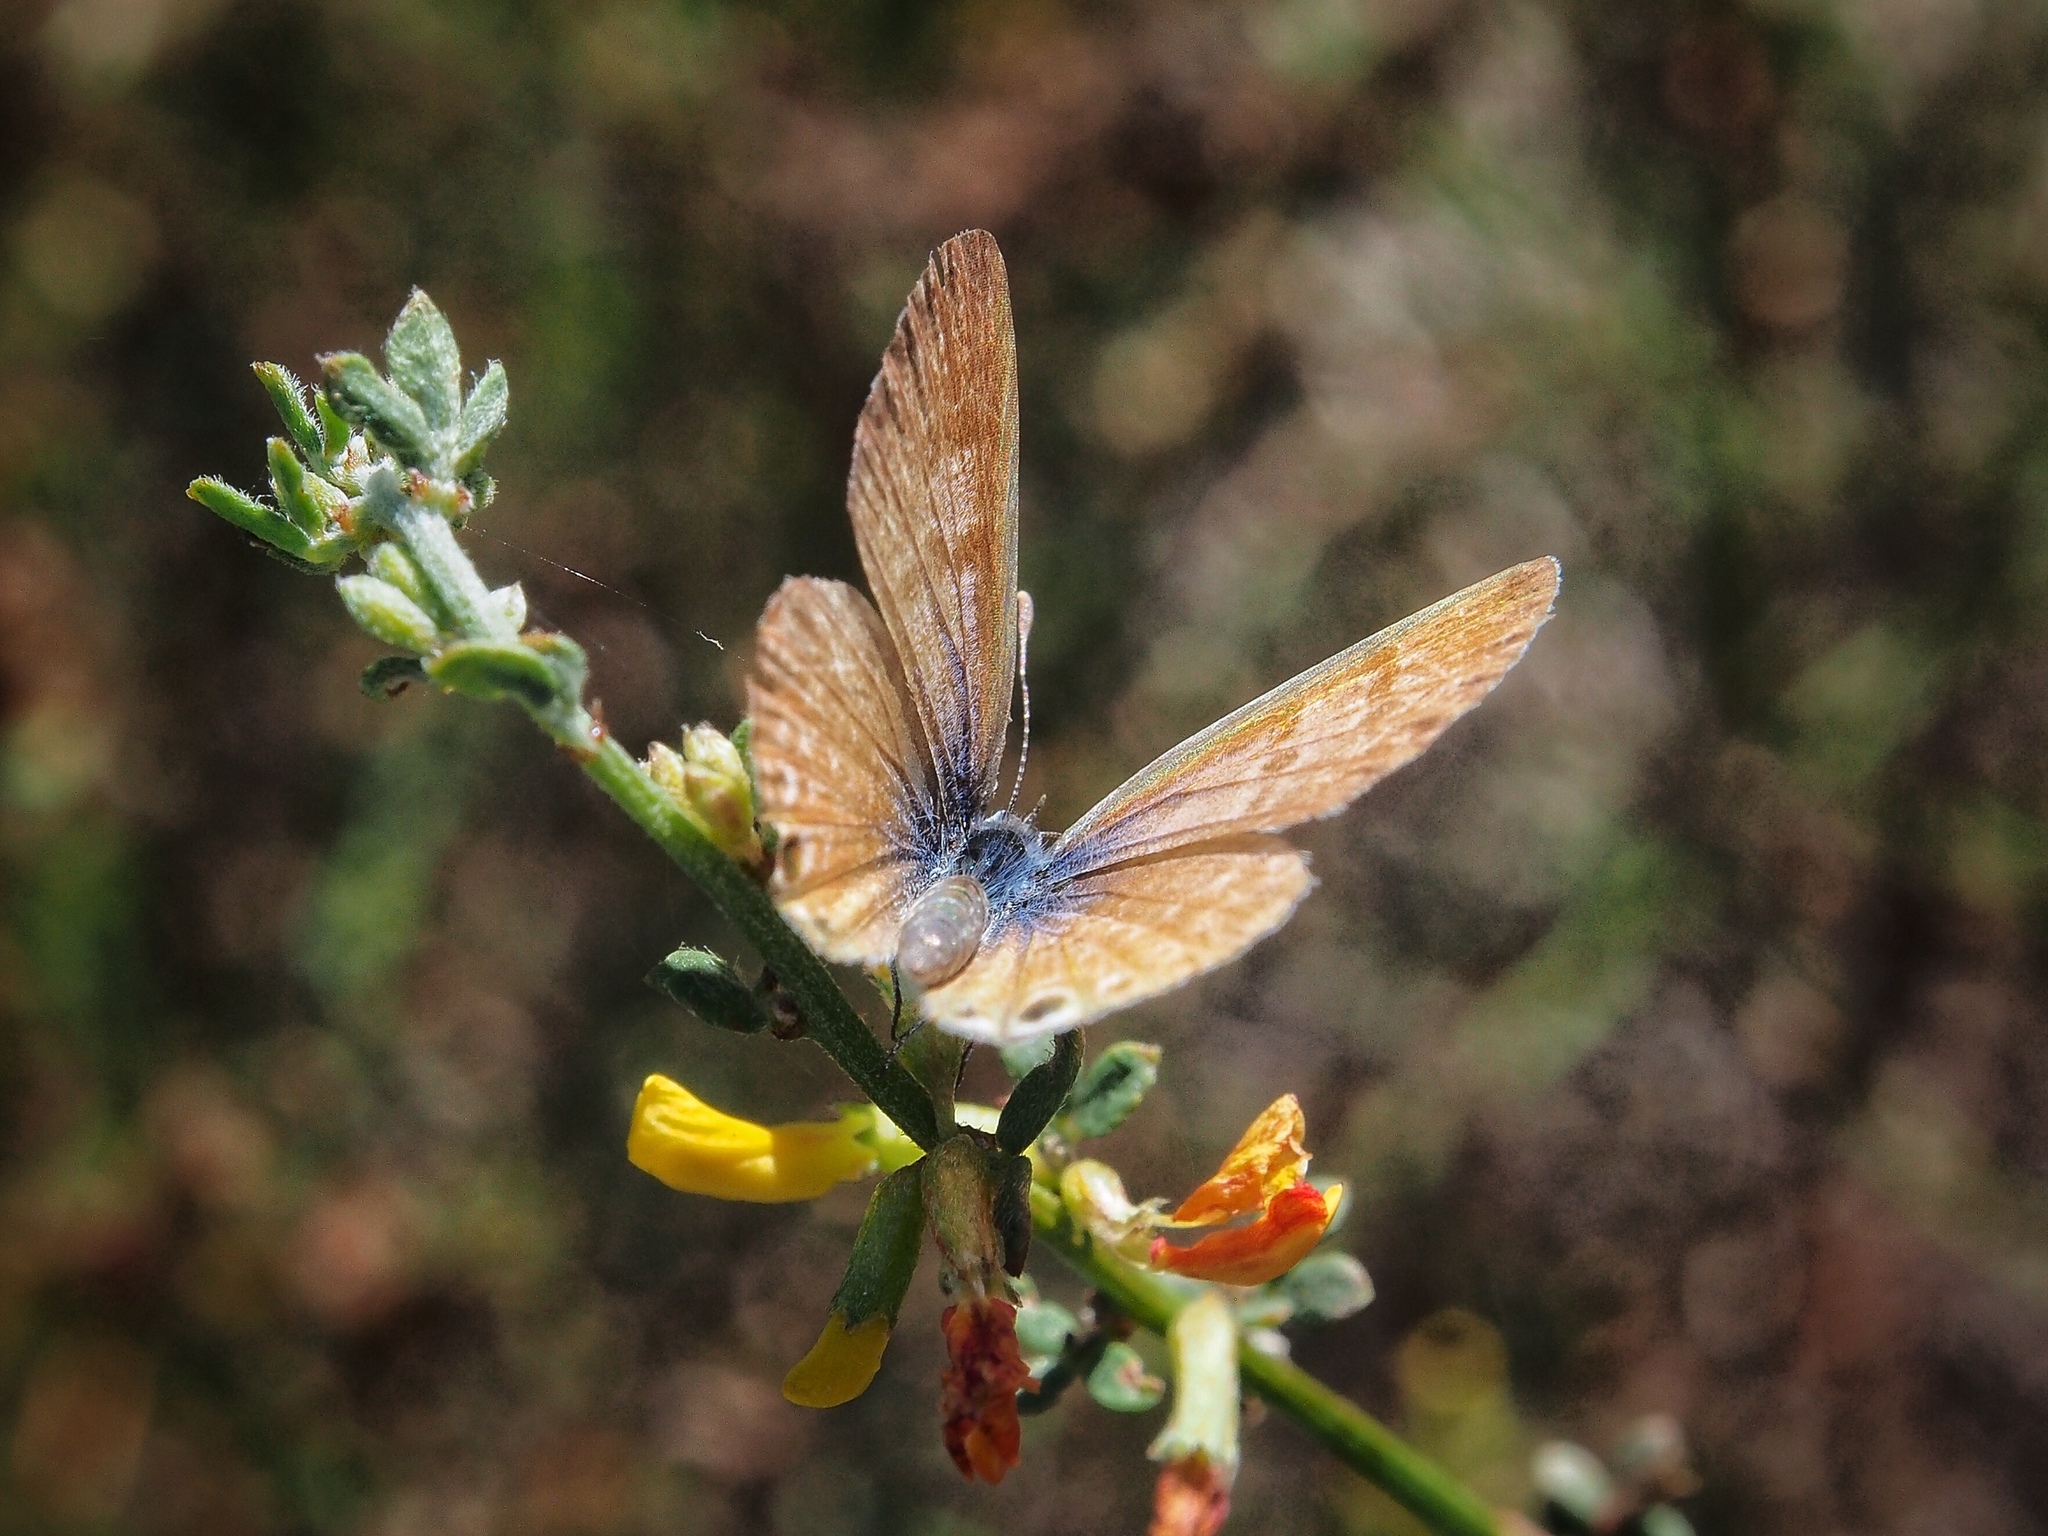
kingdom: Animalia
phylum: Arthropoda
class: Insecta
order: Lepidoptera
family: Lycaenidae
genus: Leptotes
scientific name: Leptotes marina
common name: Marine blue
